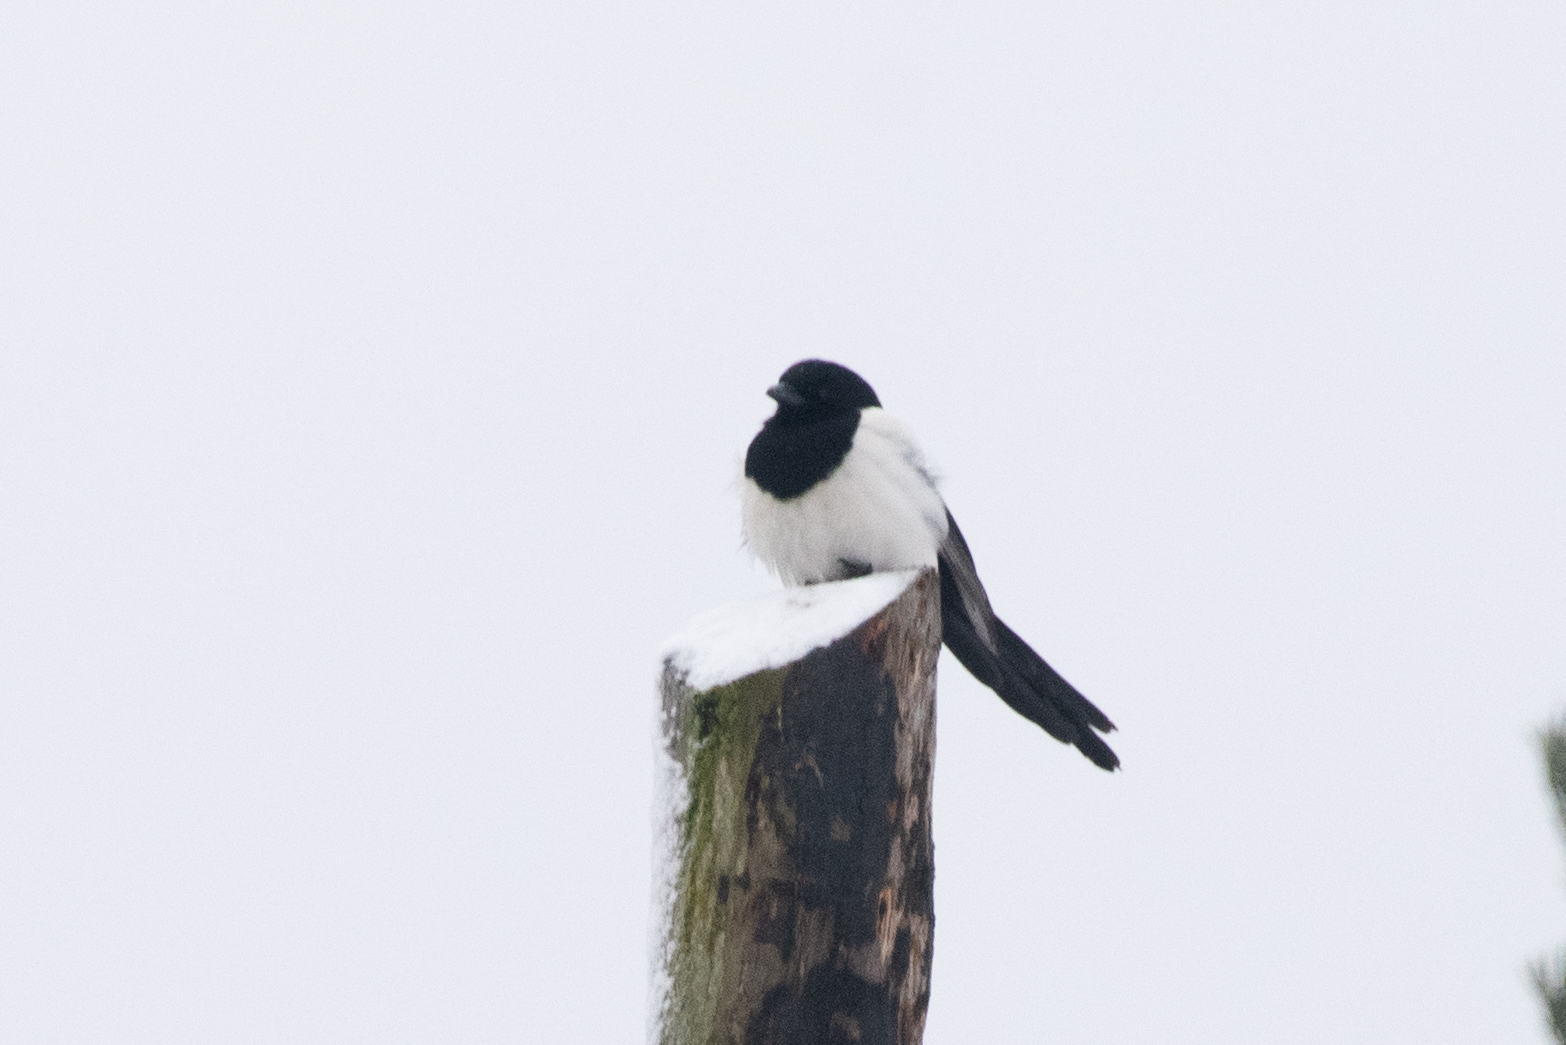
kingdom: Animalia
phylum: Chordata
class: Aves
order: Passeriformes
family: Corvidae
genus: Pica
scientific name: Pica pica
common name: Eurasian magpie
